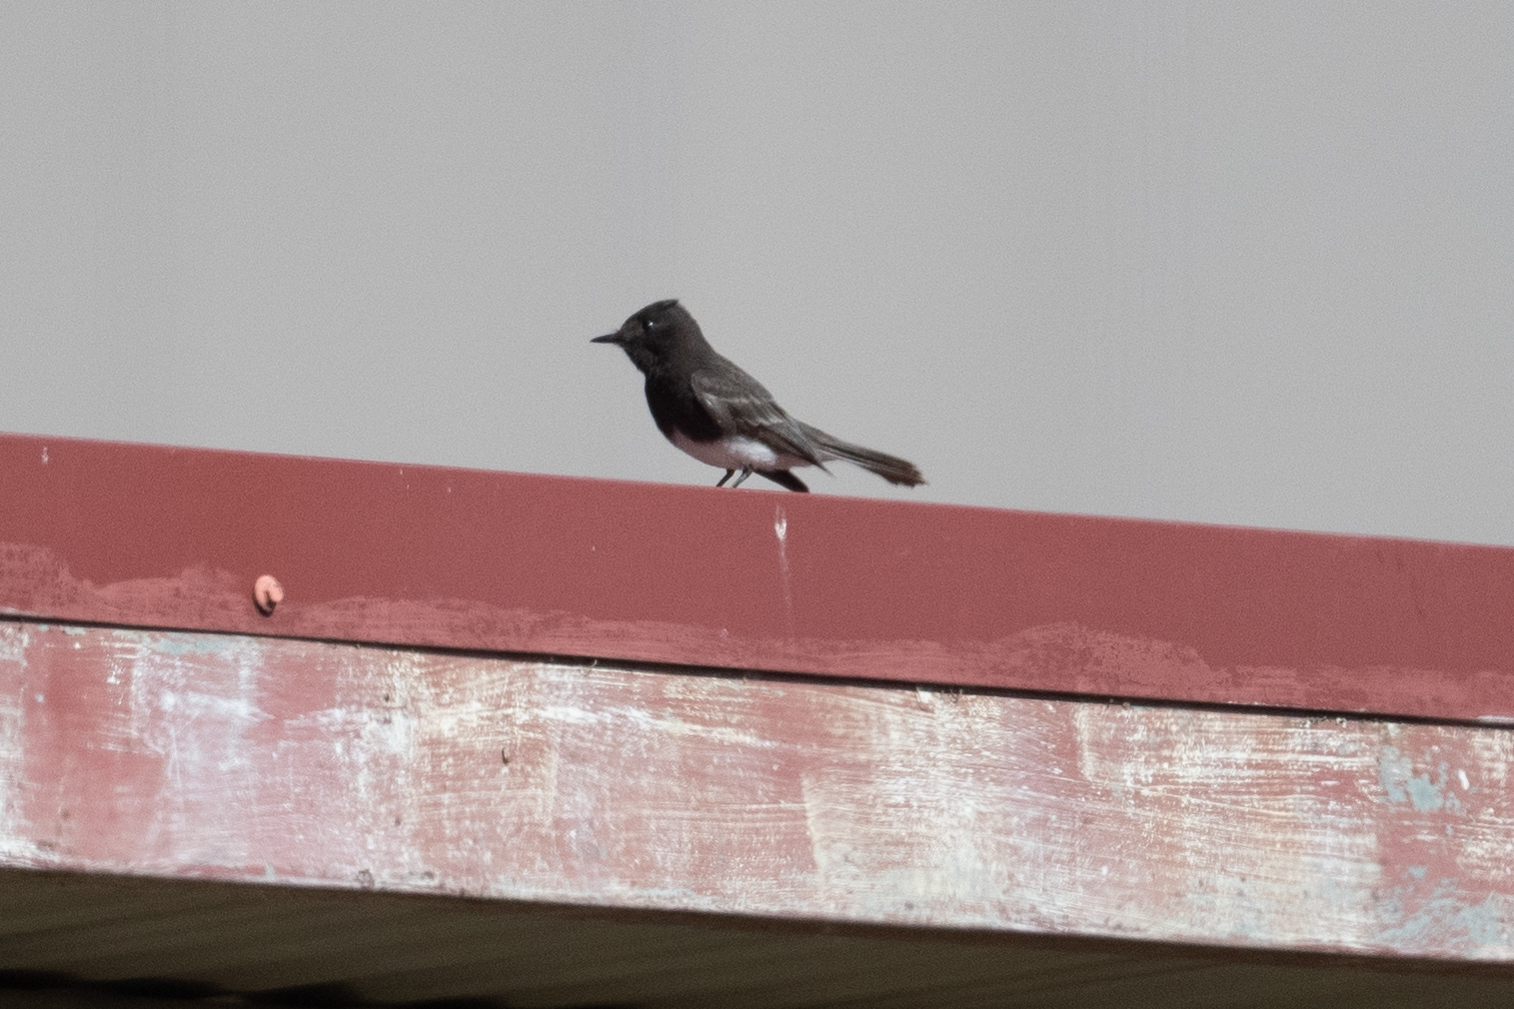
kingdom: Animalia
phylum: Chordata
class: Aves
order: Passeriformes
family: Tyrannidae
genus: Sayornis
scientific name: Sayornis nigricans
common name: Black phoebe
